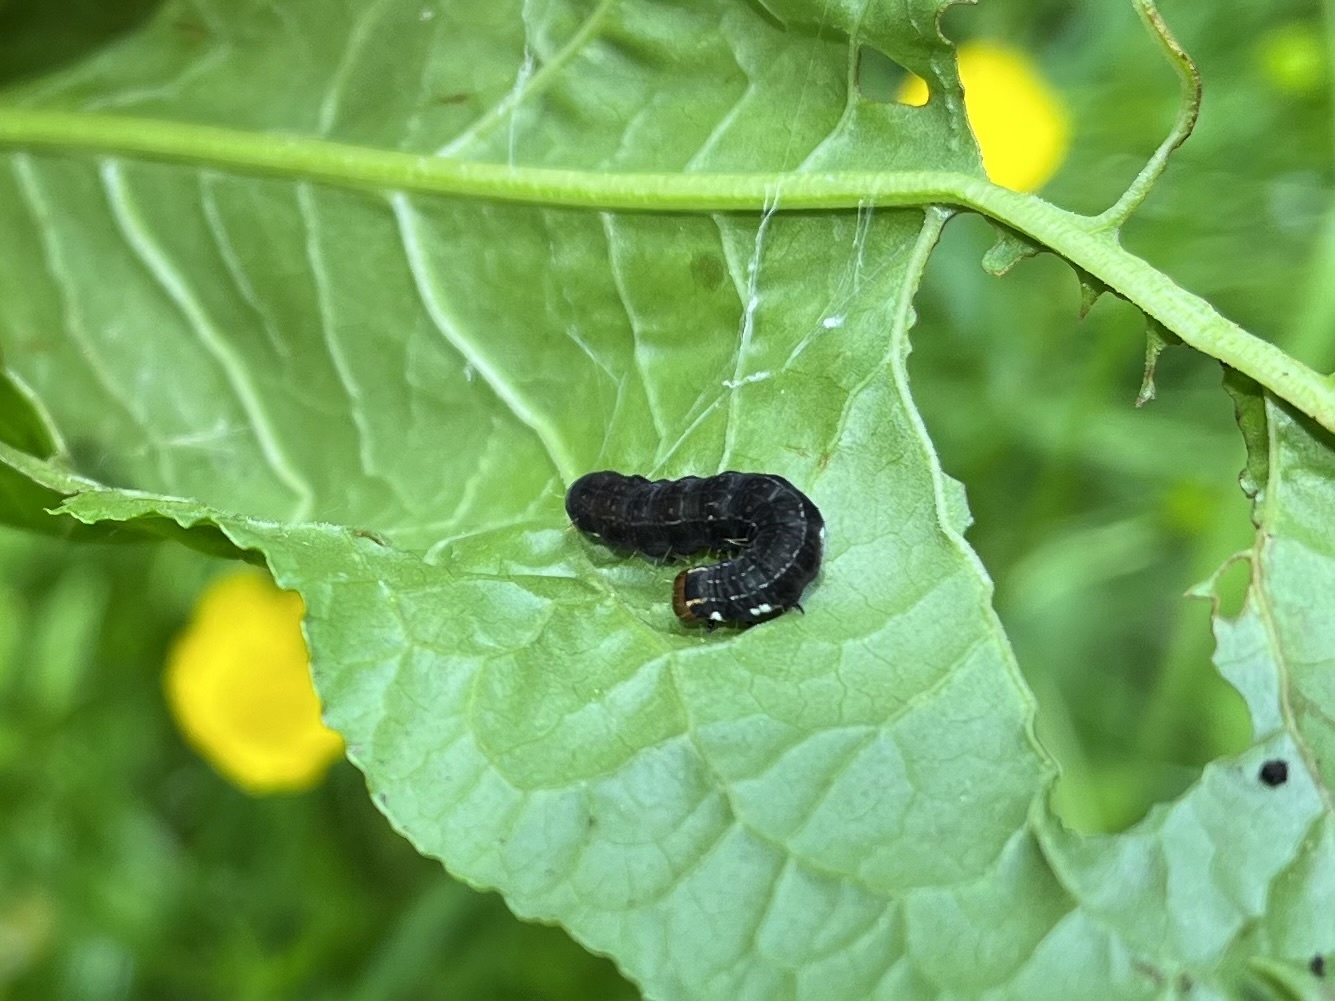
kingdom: Animalia
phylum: Arthropoda
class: Insecta
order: Lepidoptera
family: Noctuidae
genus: Eupsilia
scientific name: Eupsilia transversa
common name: Satellite
